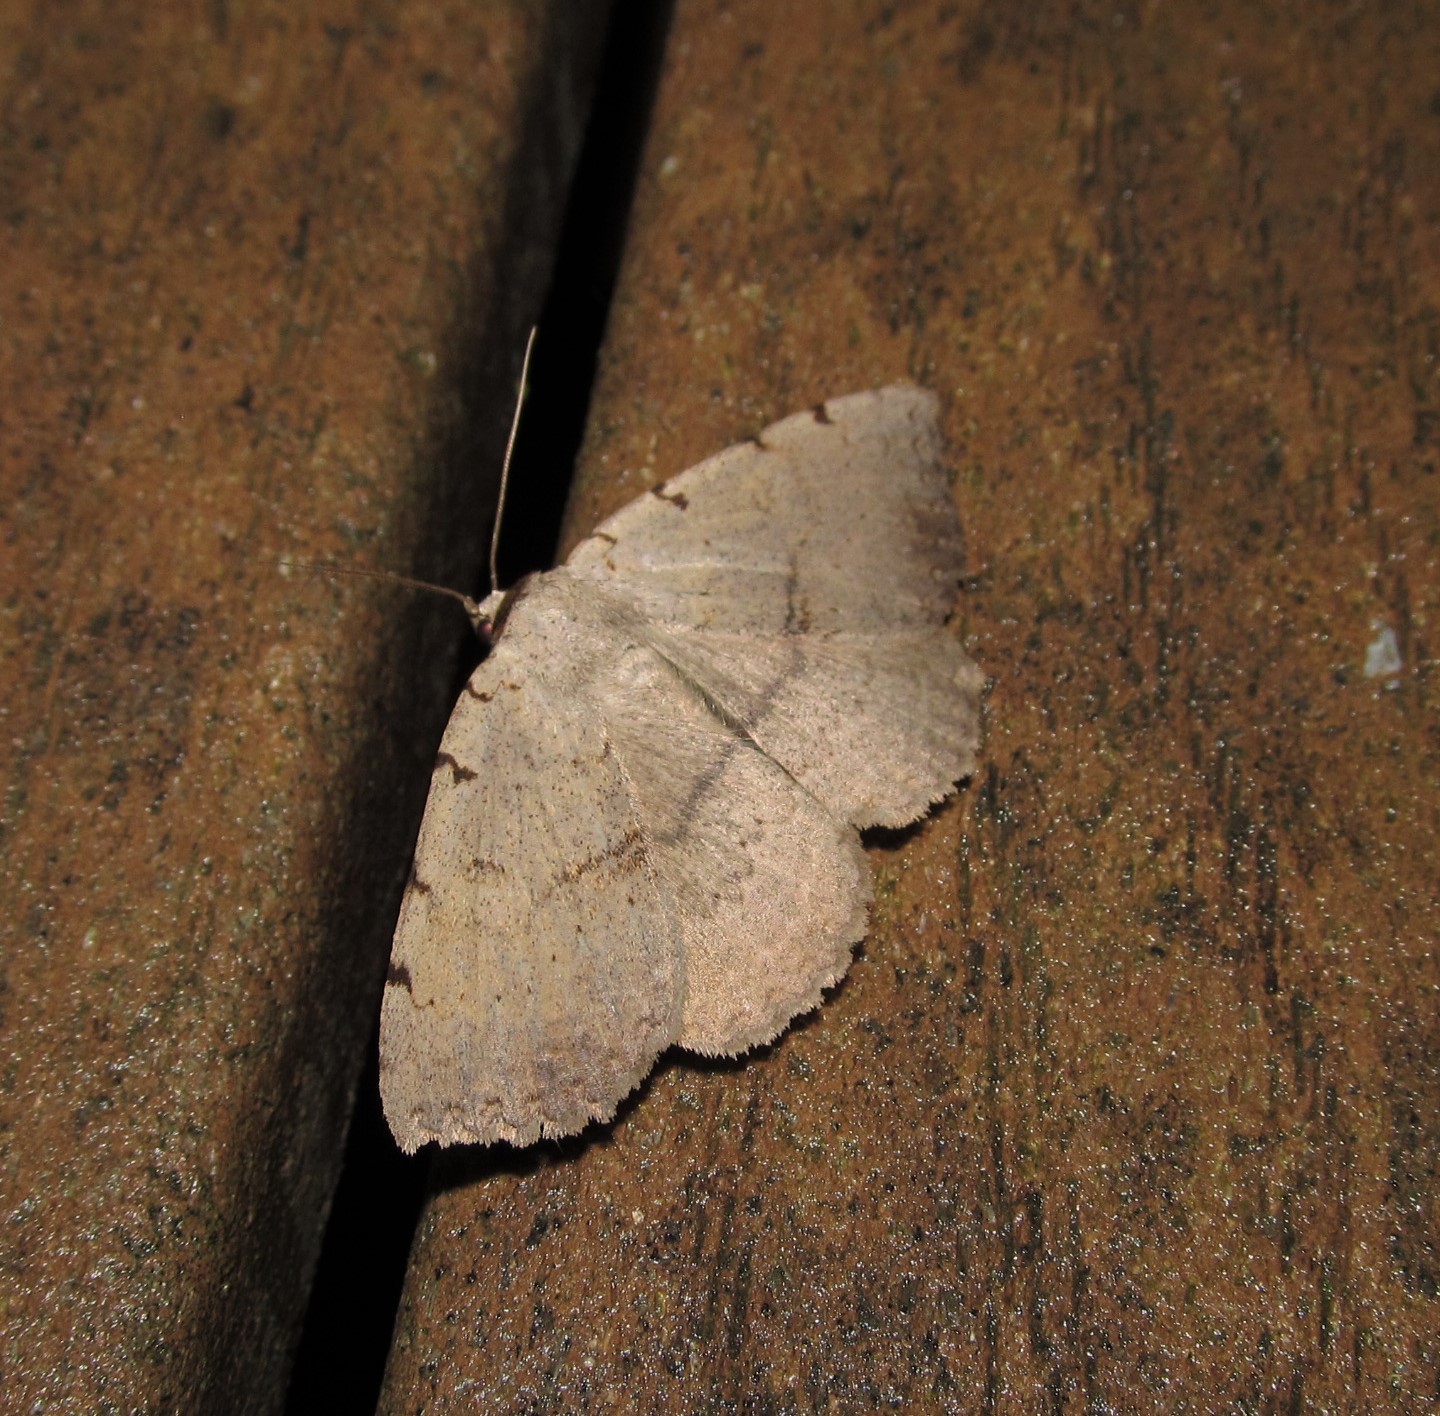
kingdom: Animalia
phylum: Arthropoda
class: Insecta
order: Lepidoptera
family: Erebidae
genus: Spiloloma
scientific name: Spiloloma lunilinea
